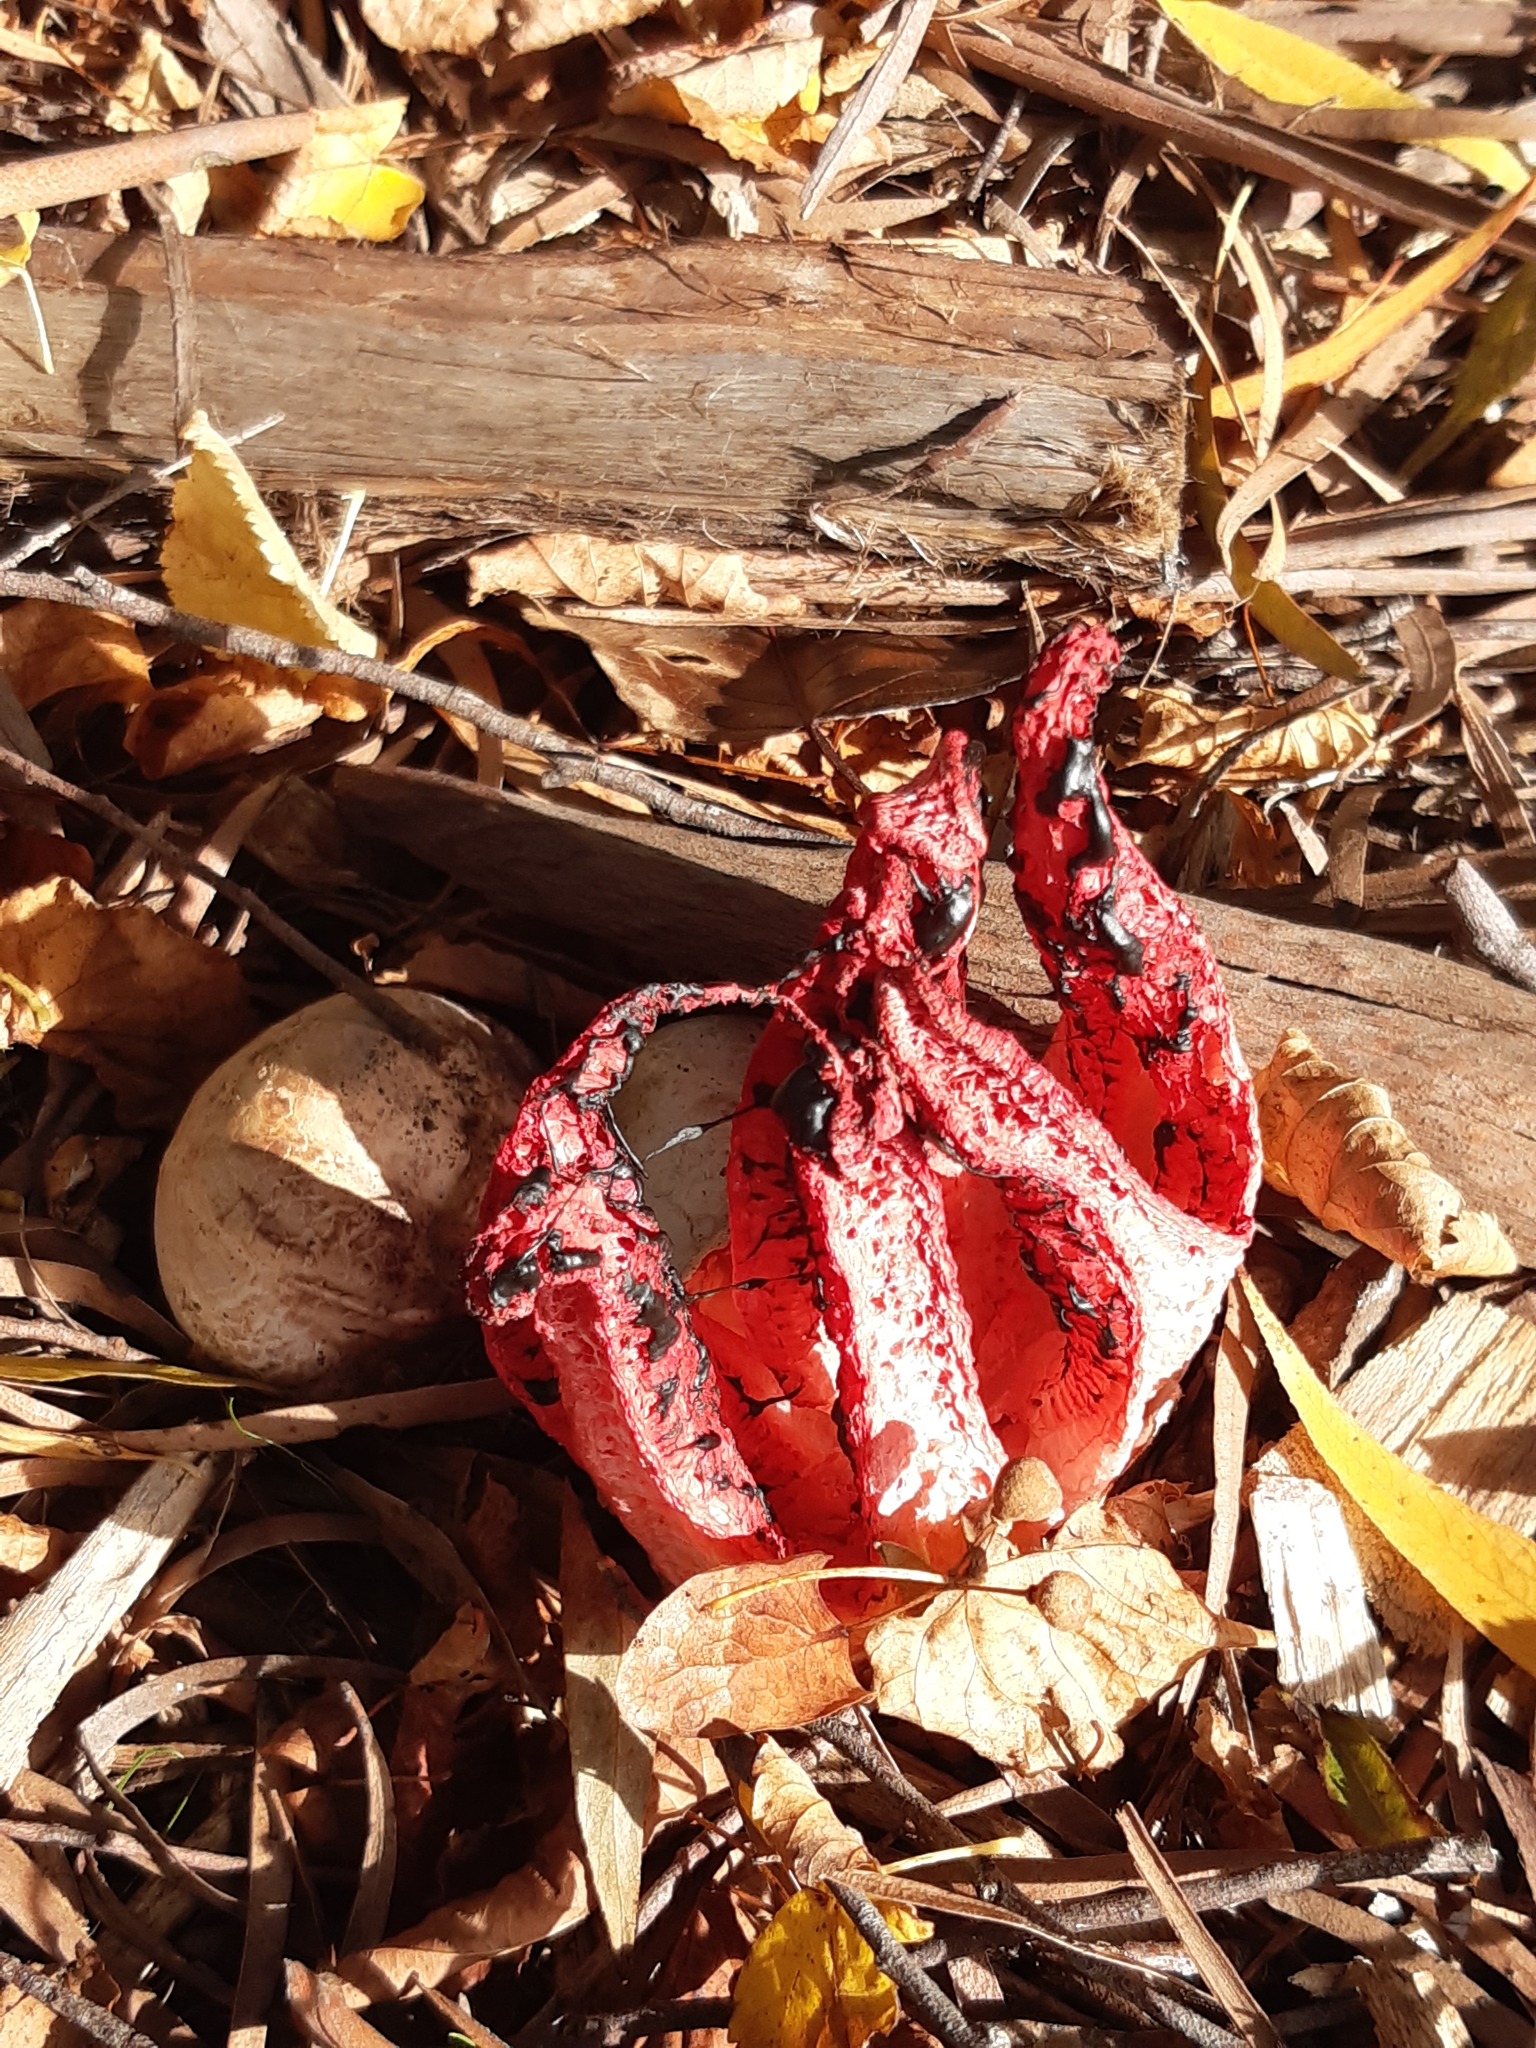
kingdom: Fungi
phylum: Basidiomycota
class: Agaricomycetes
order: Phallales
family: Phallaceae
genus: Clathrus
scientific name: Clathrus archeri
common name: Devil's fingers
